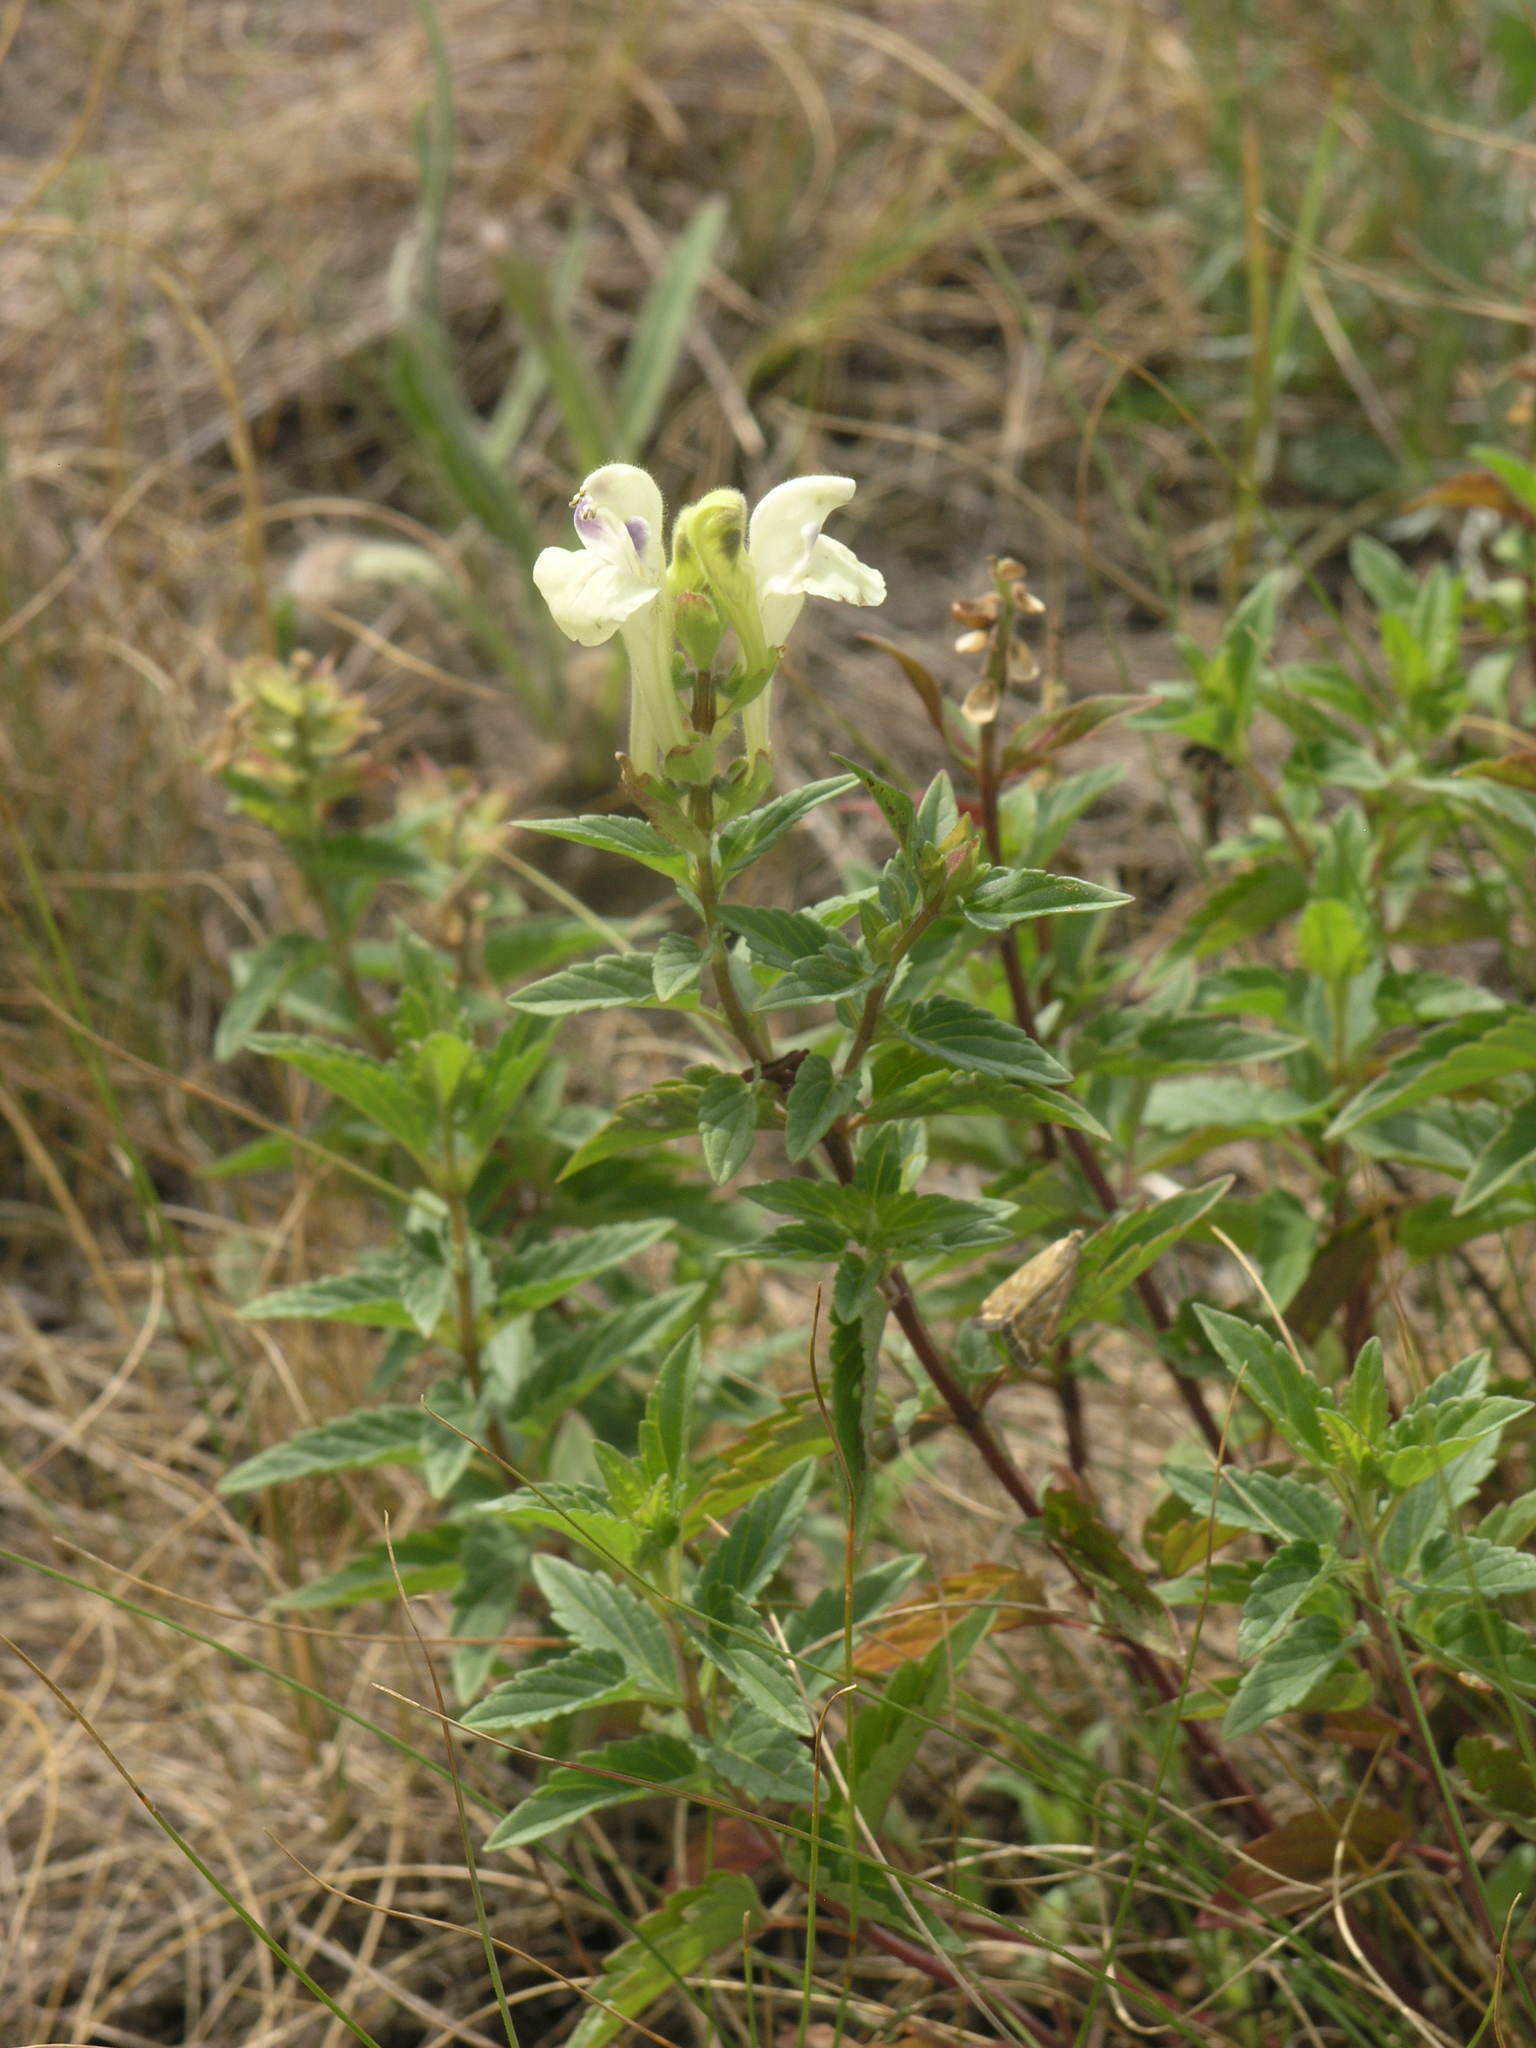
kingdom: Plantae
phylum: Tracheophyta
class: Magnoliopsida
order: Lamiales
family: Lamiaceae
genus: Scutellaria
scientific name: Scutellaria supina
